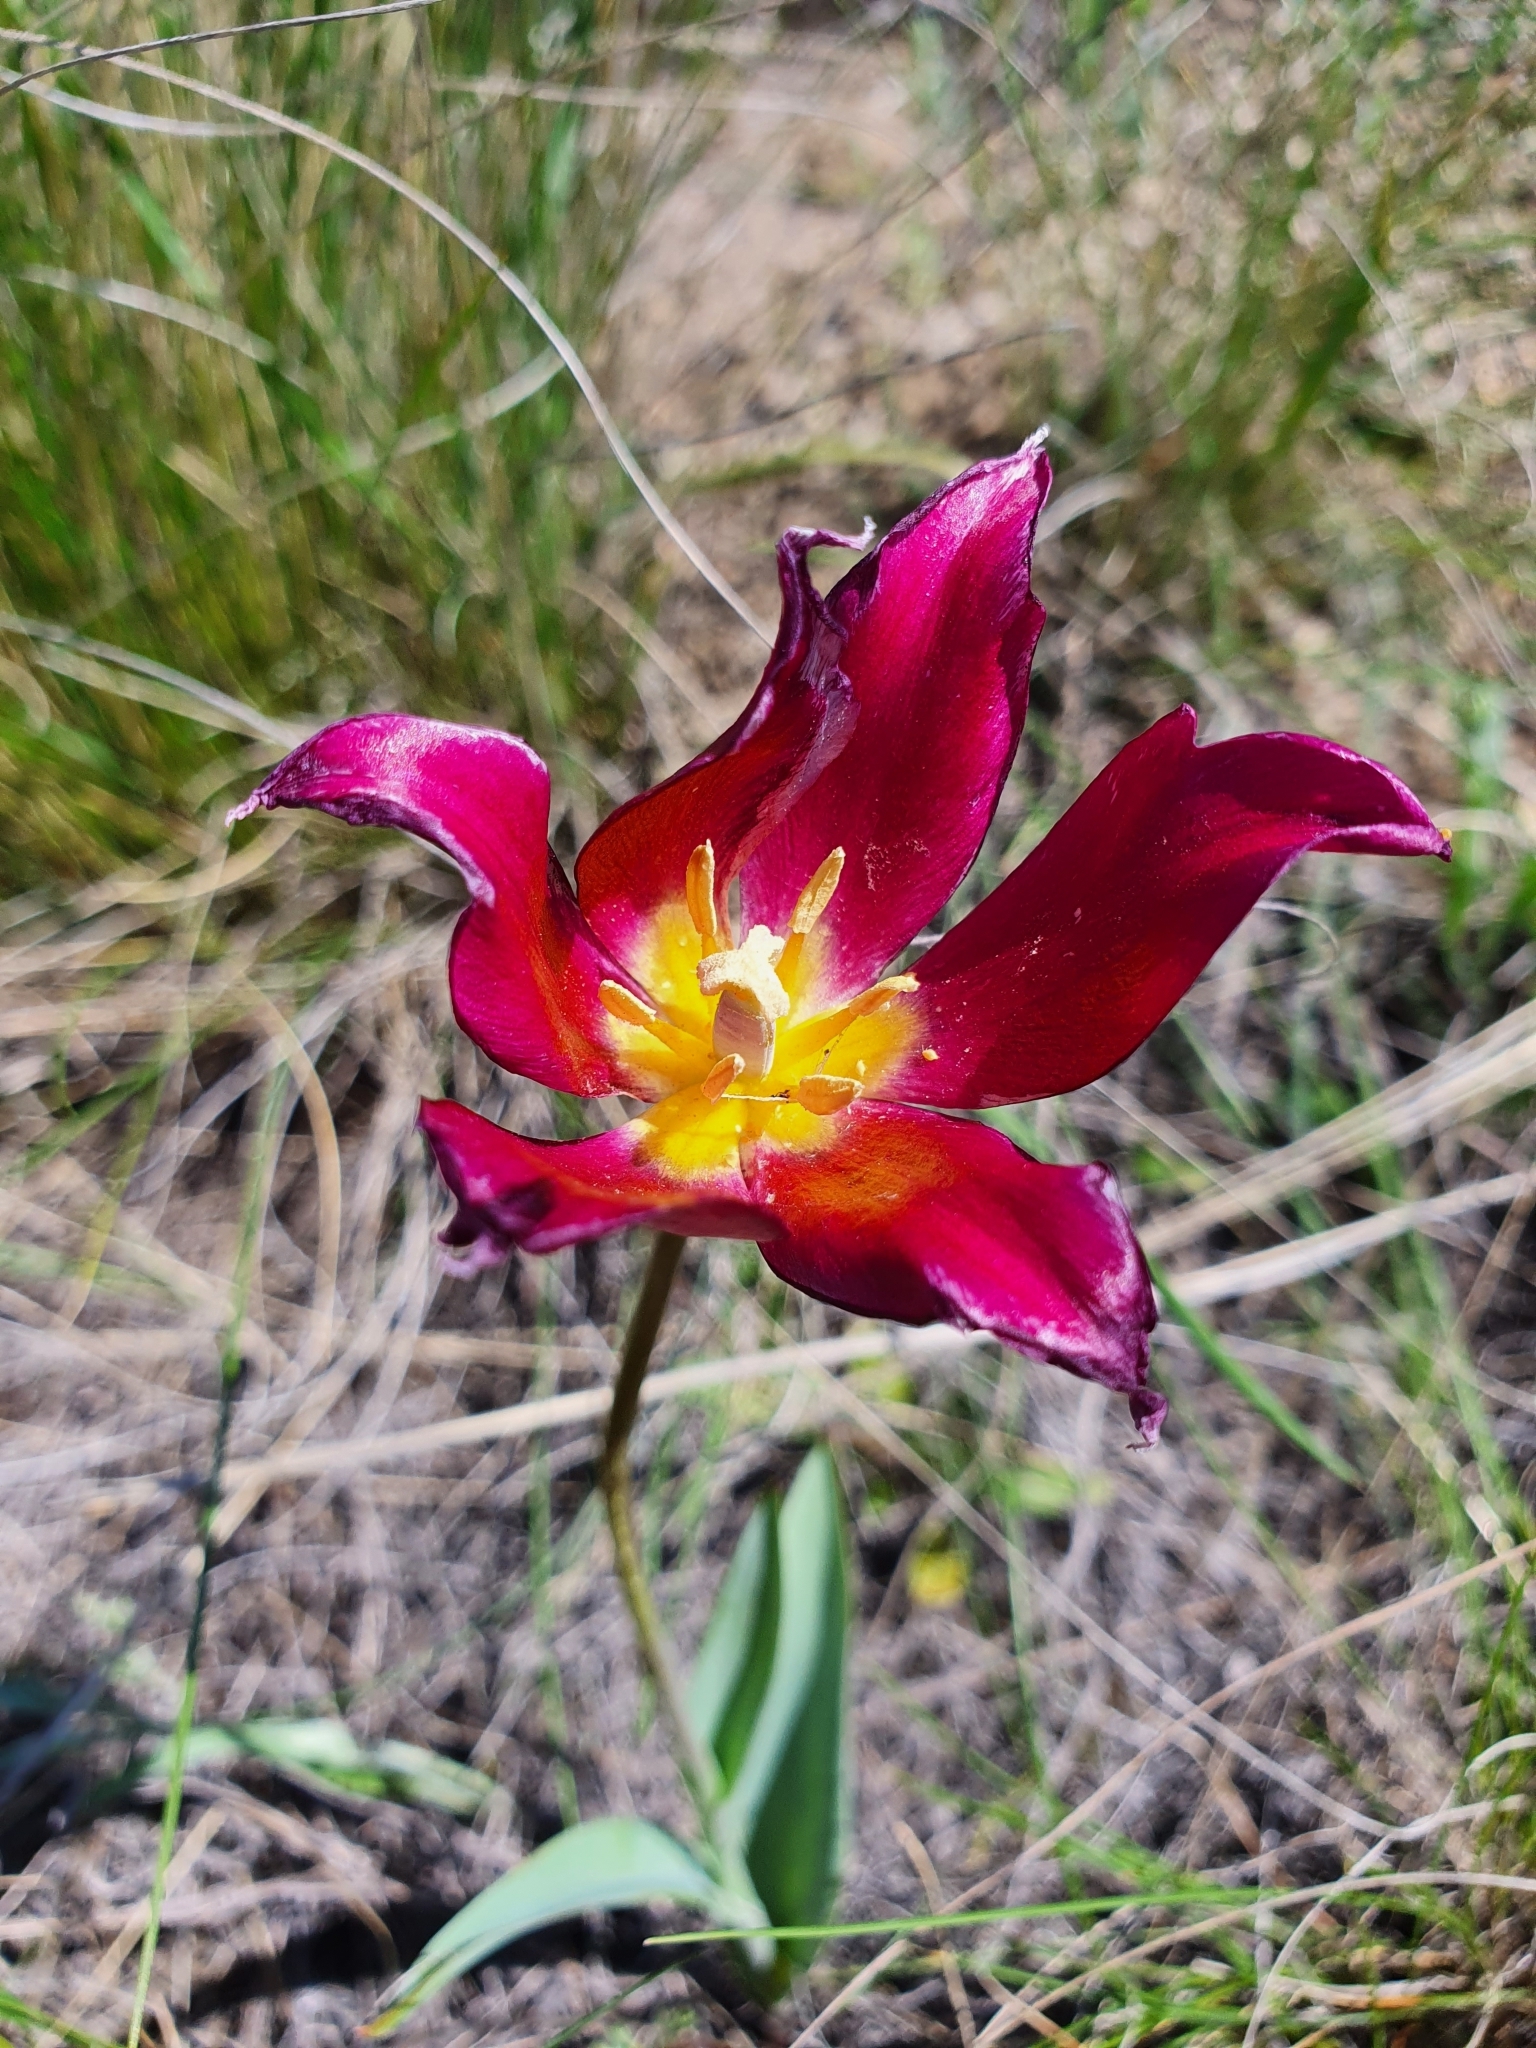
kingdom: Plantae
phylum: Tracheophyta
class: Liliopsida
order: Liliales
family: Liliaceae
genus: Tulipa
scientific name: Tulipa suaveolens
